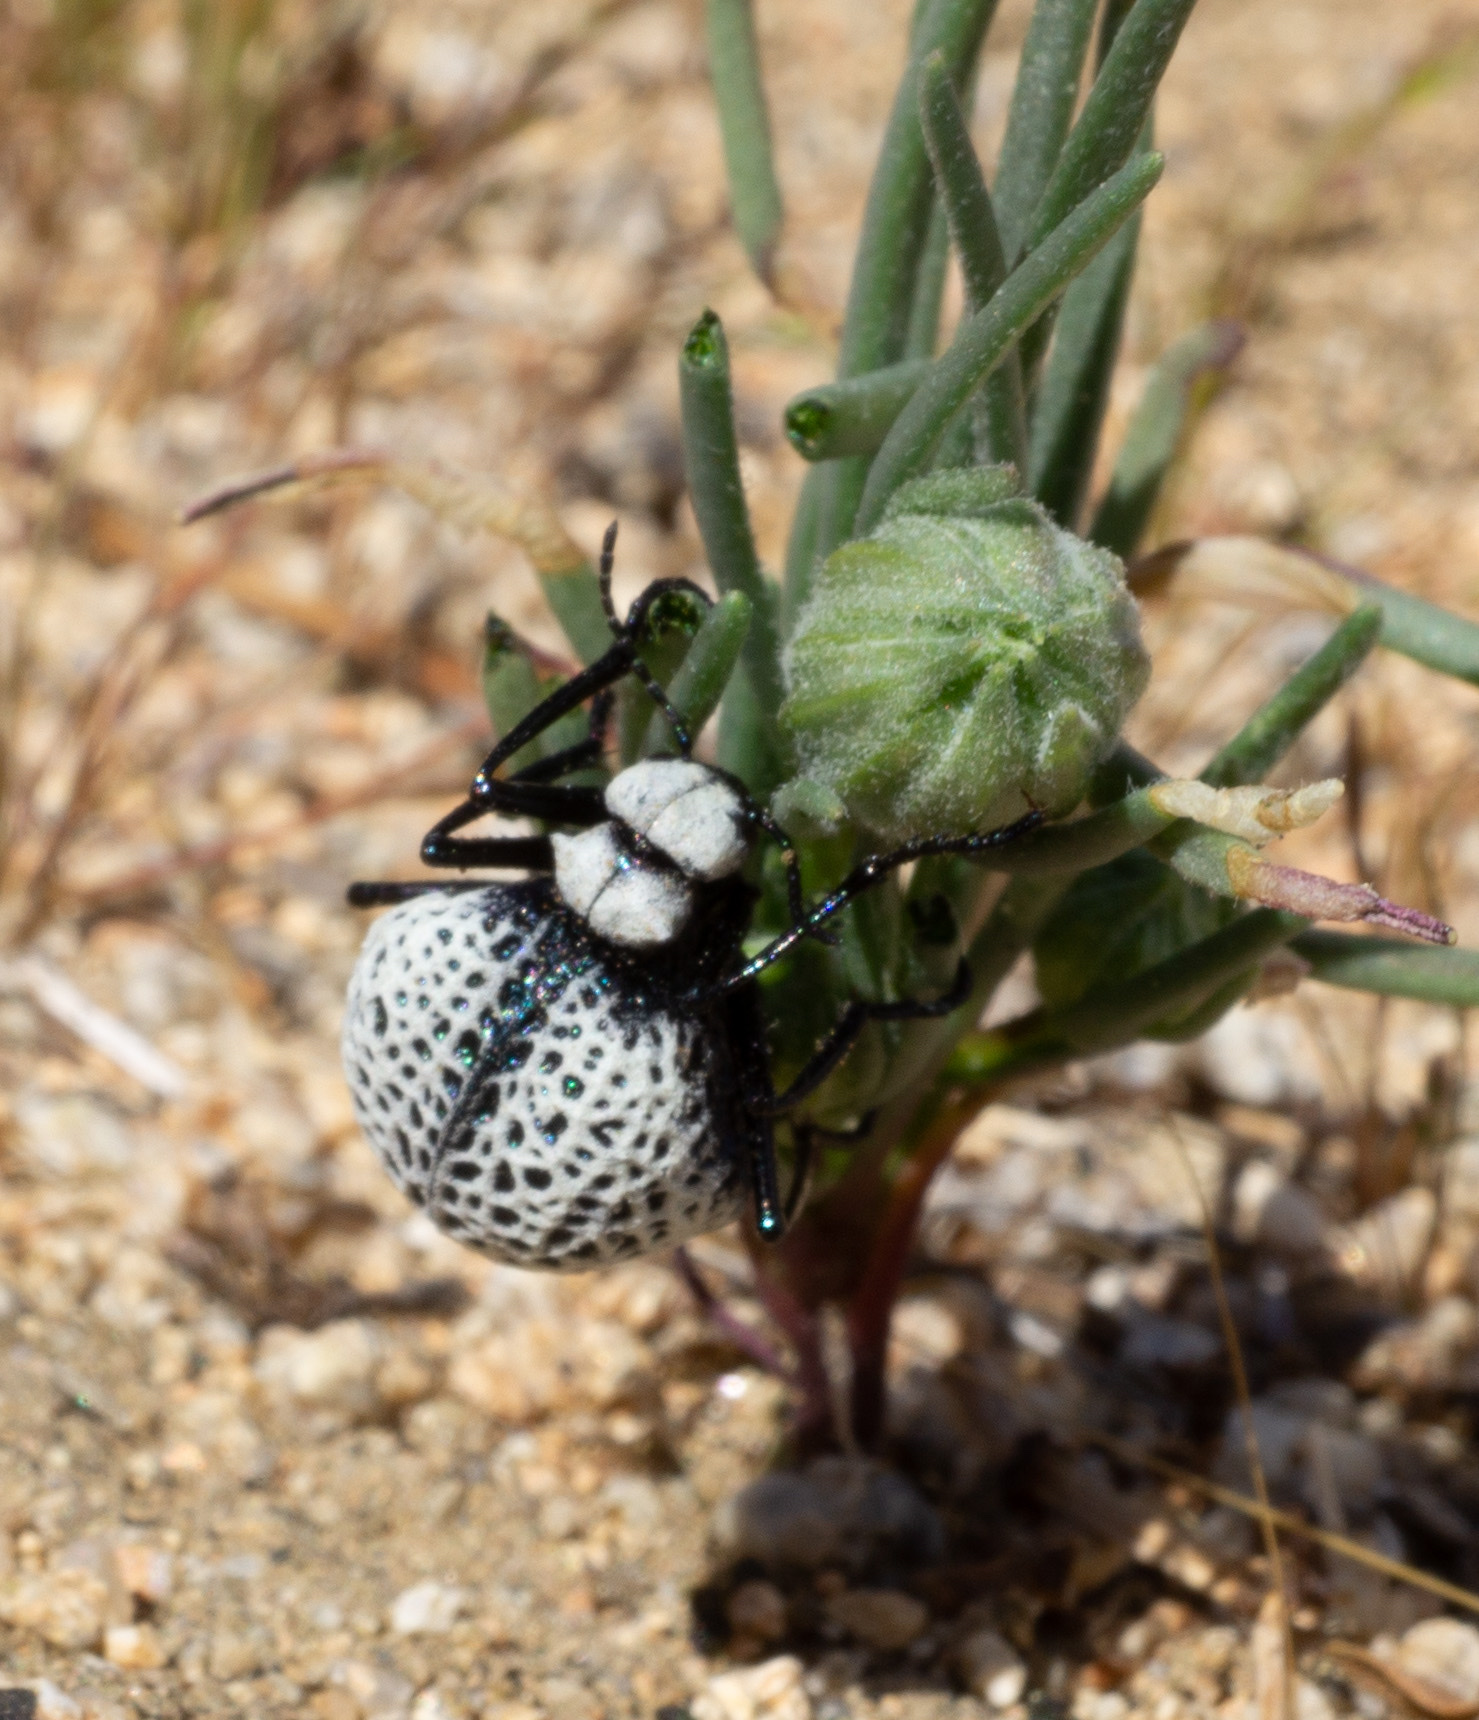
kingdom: Animalia
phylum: Arthropoda
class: Insecta
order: Coleoptera
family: Meloidae
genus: Cysteodemus
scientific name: Cysteodemus armatus
